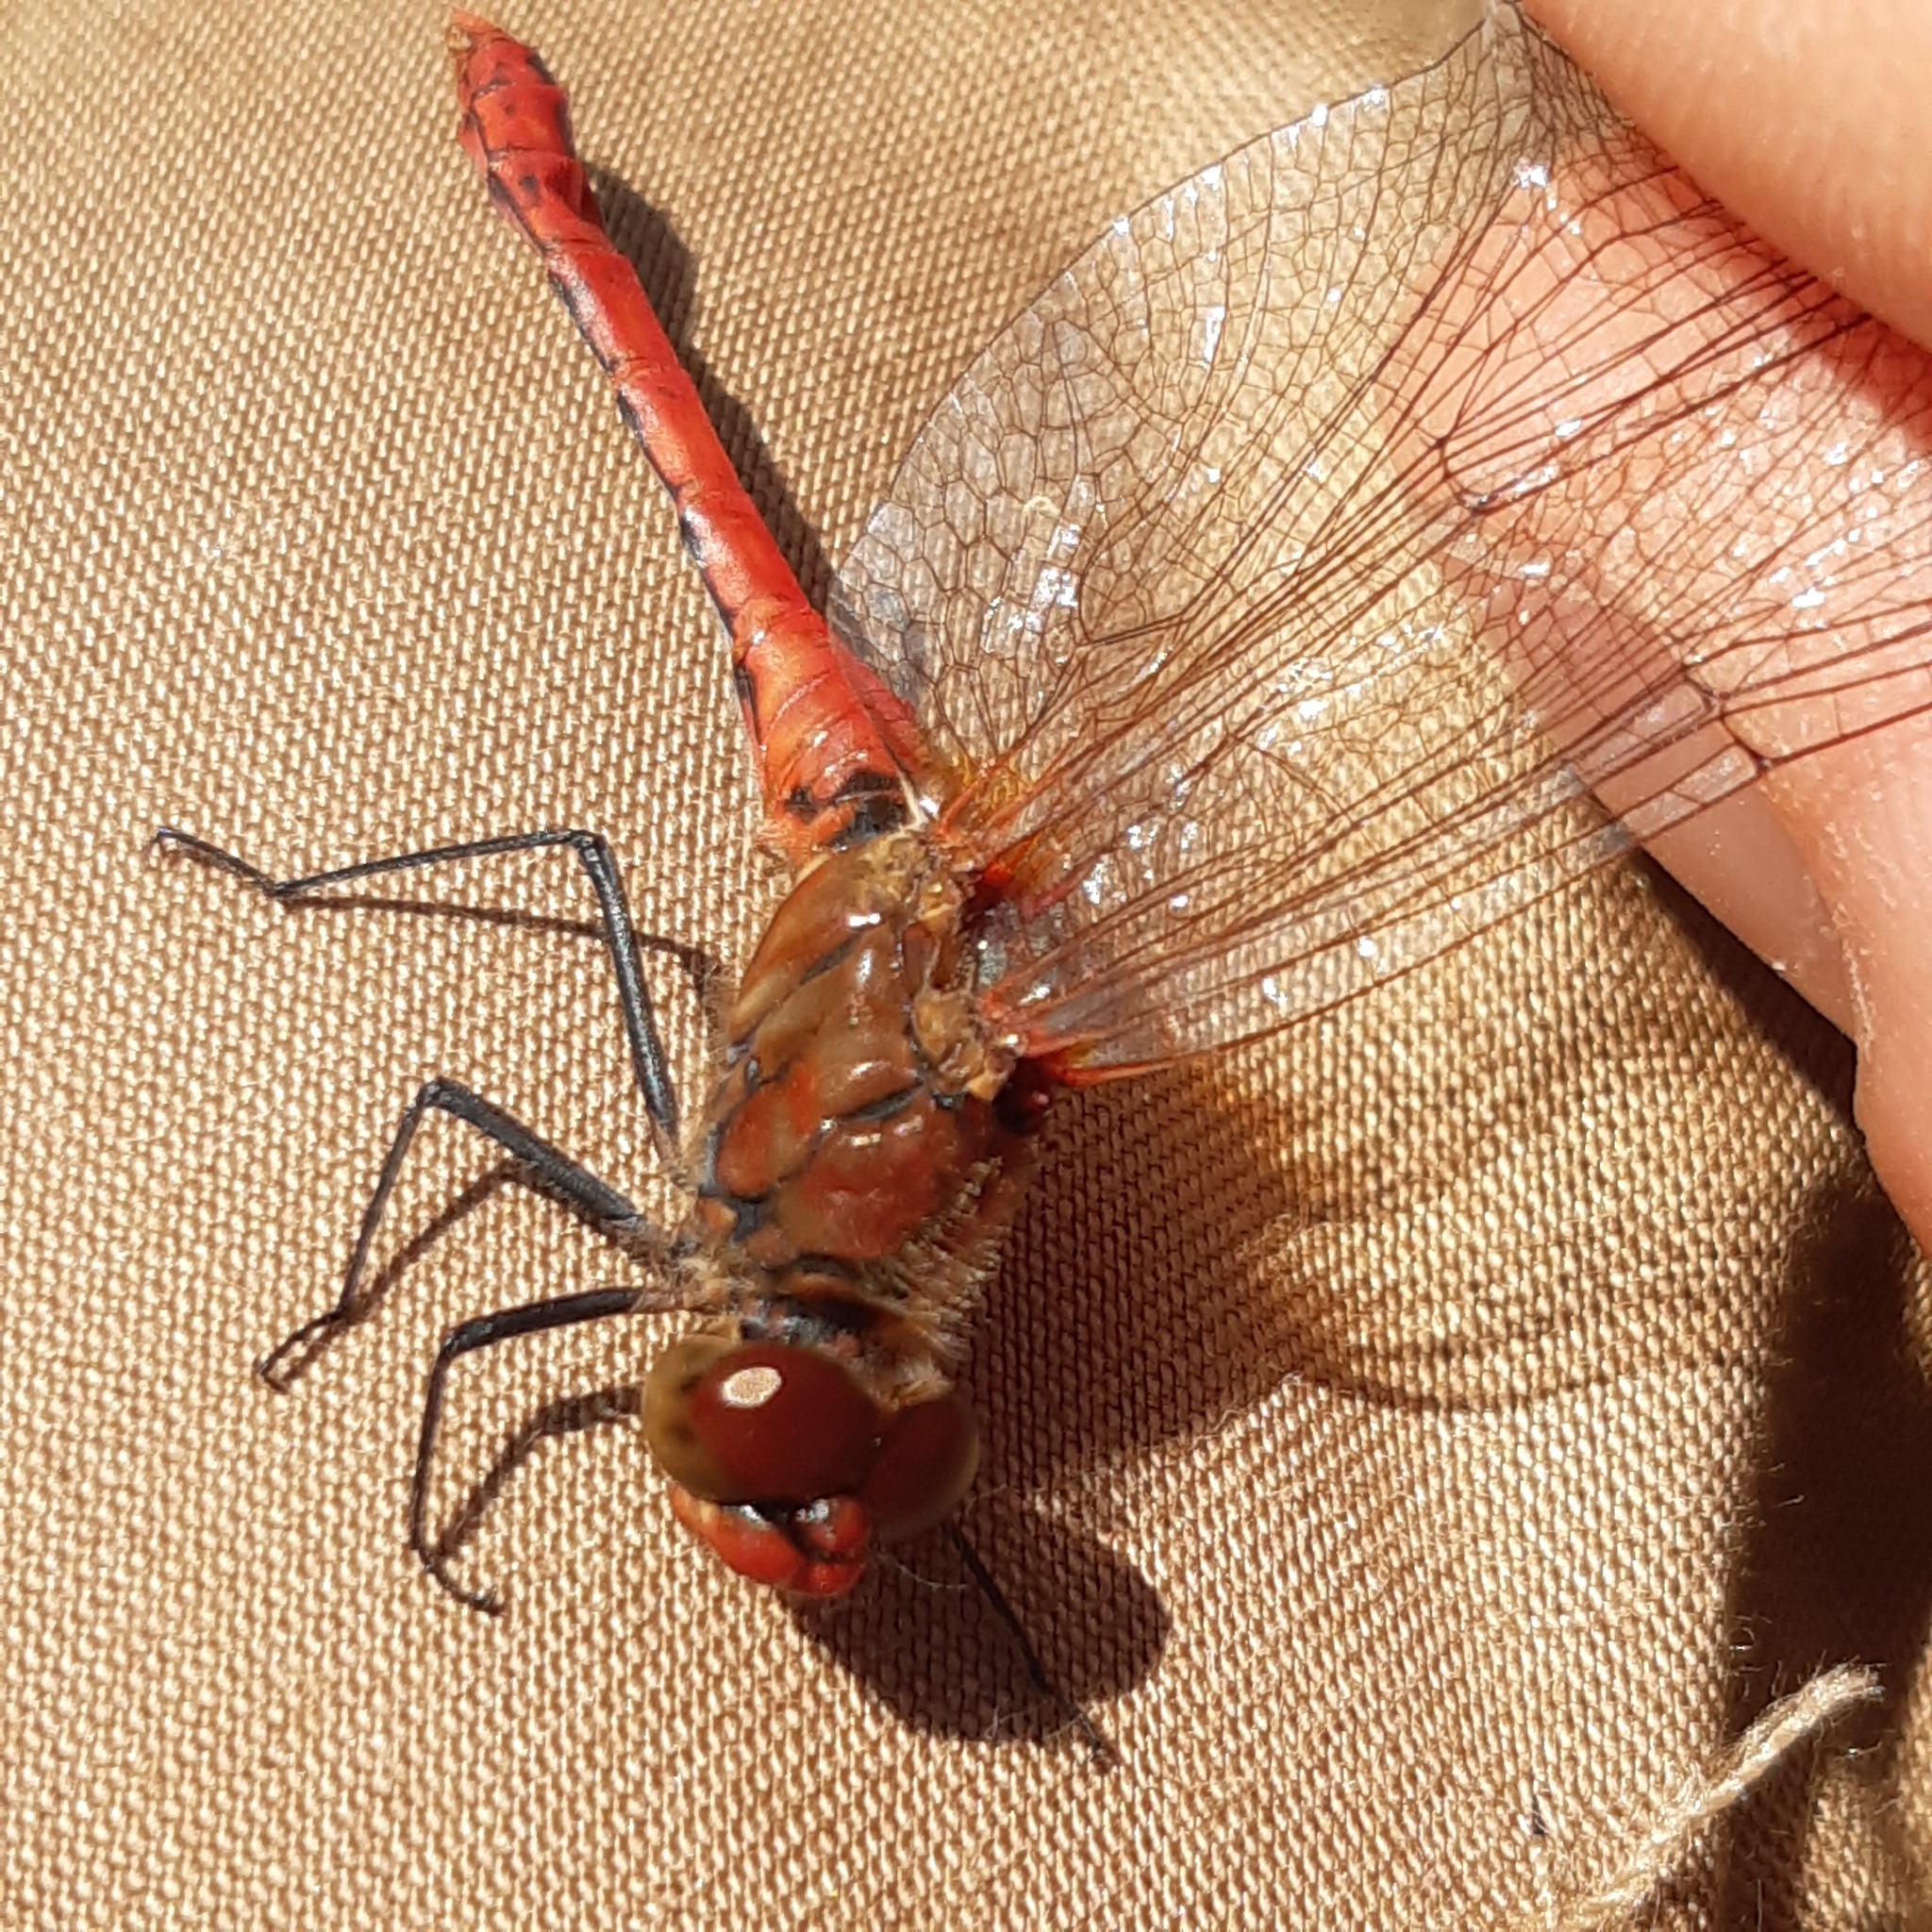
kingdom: Animalia
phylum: Arthropoda
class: Insecta
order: Odonata
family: Libellulidae
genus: Sympetrum
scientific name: Sympetrum sanguineum
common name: Ruddy darter
